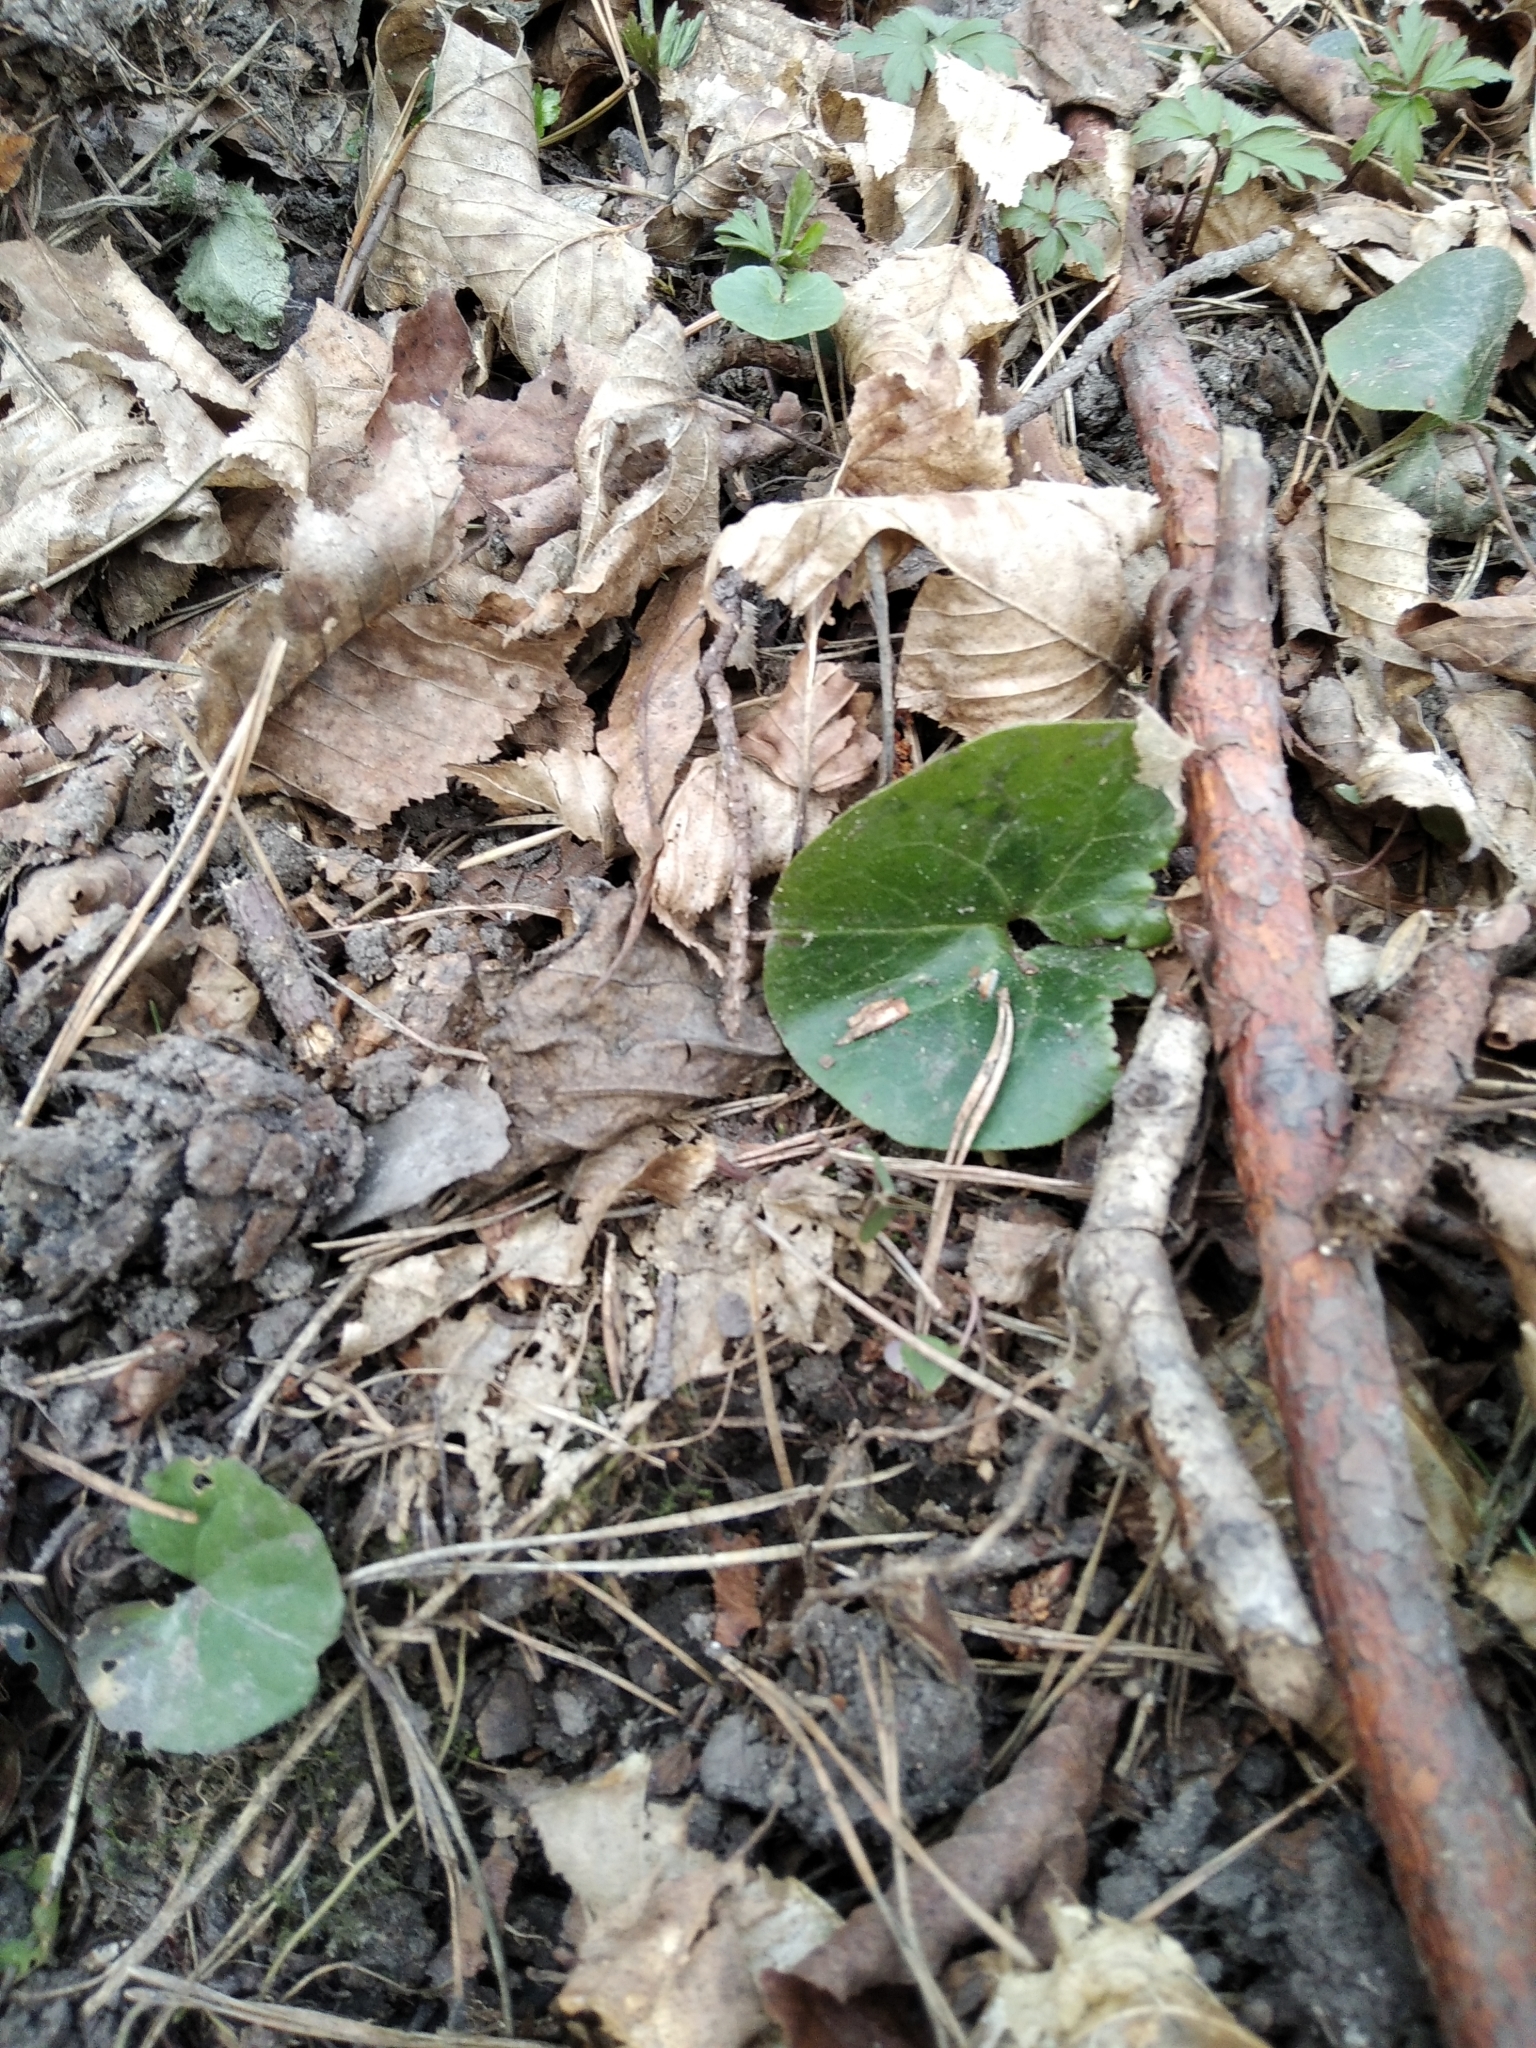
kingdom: Plantae
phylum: Tracheophyta
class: Magnoliopsida
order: Piperales
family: Aristolochiaceae
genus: Asarum
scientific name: Asarum europaeum
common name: Asarabacca
